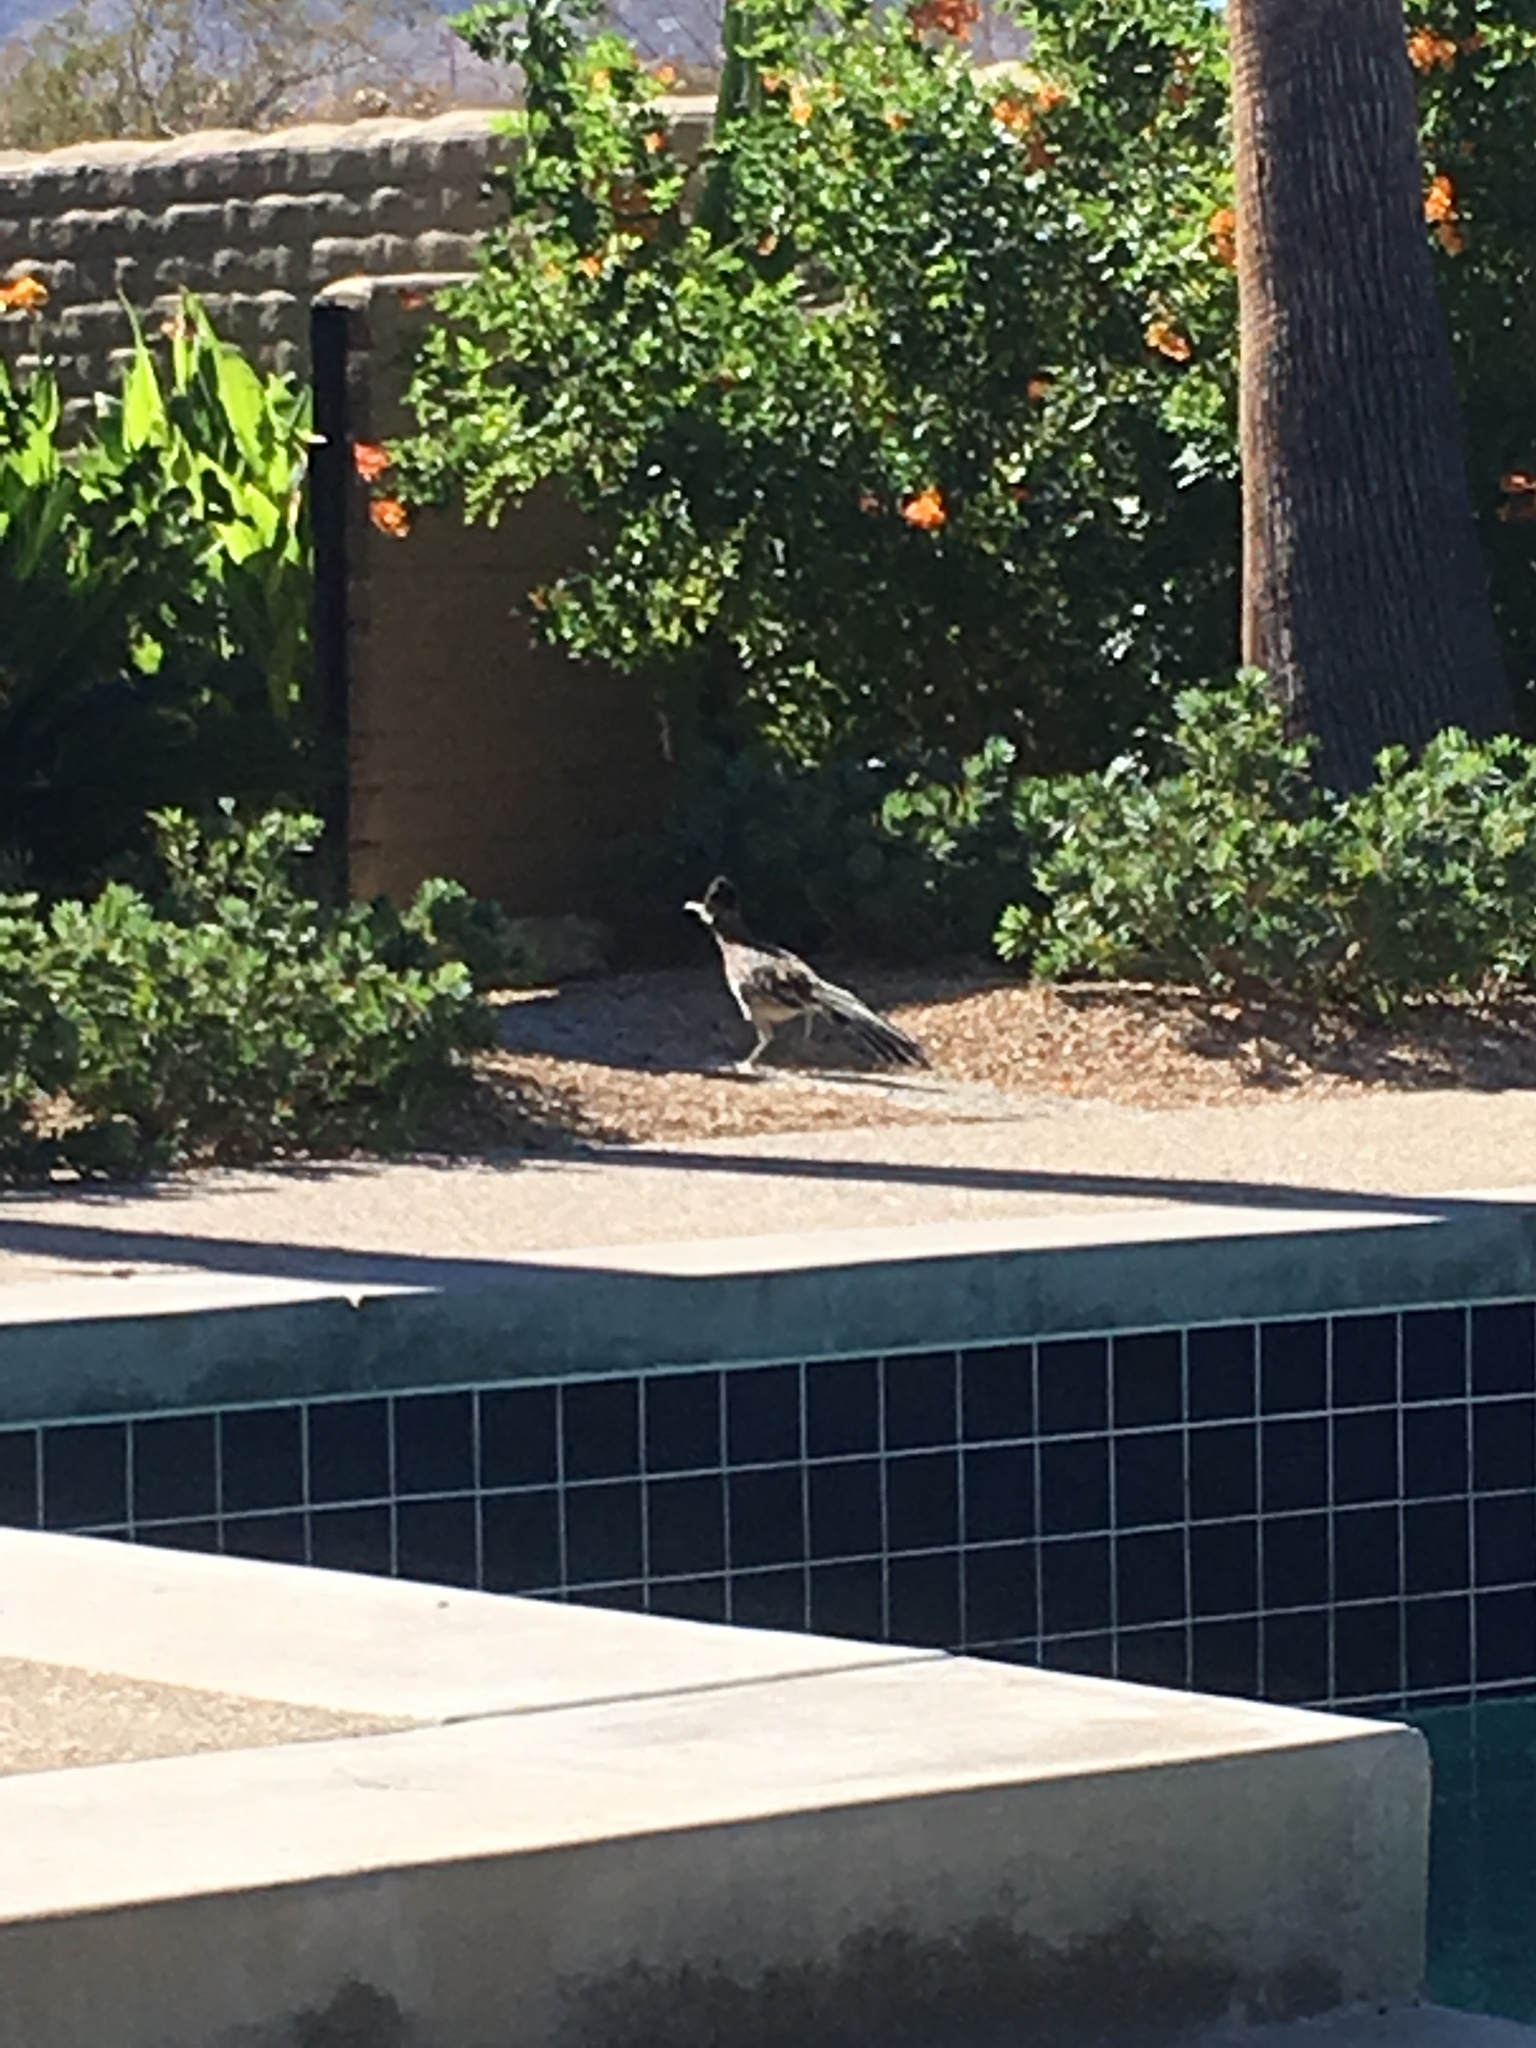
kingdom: Animalia
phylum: Chordata
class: Aves
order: Cuculiformes
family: Cuculidae
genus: Geococcyx
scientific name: Geococcyx californianus
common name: Greater roadrunner
